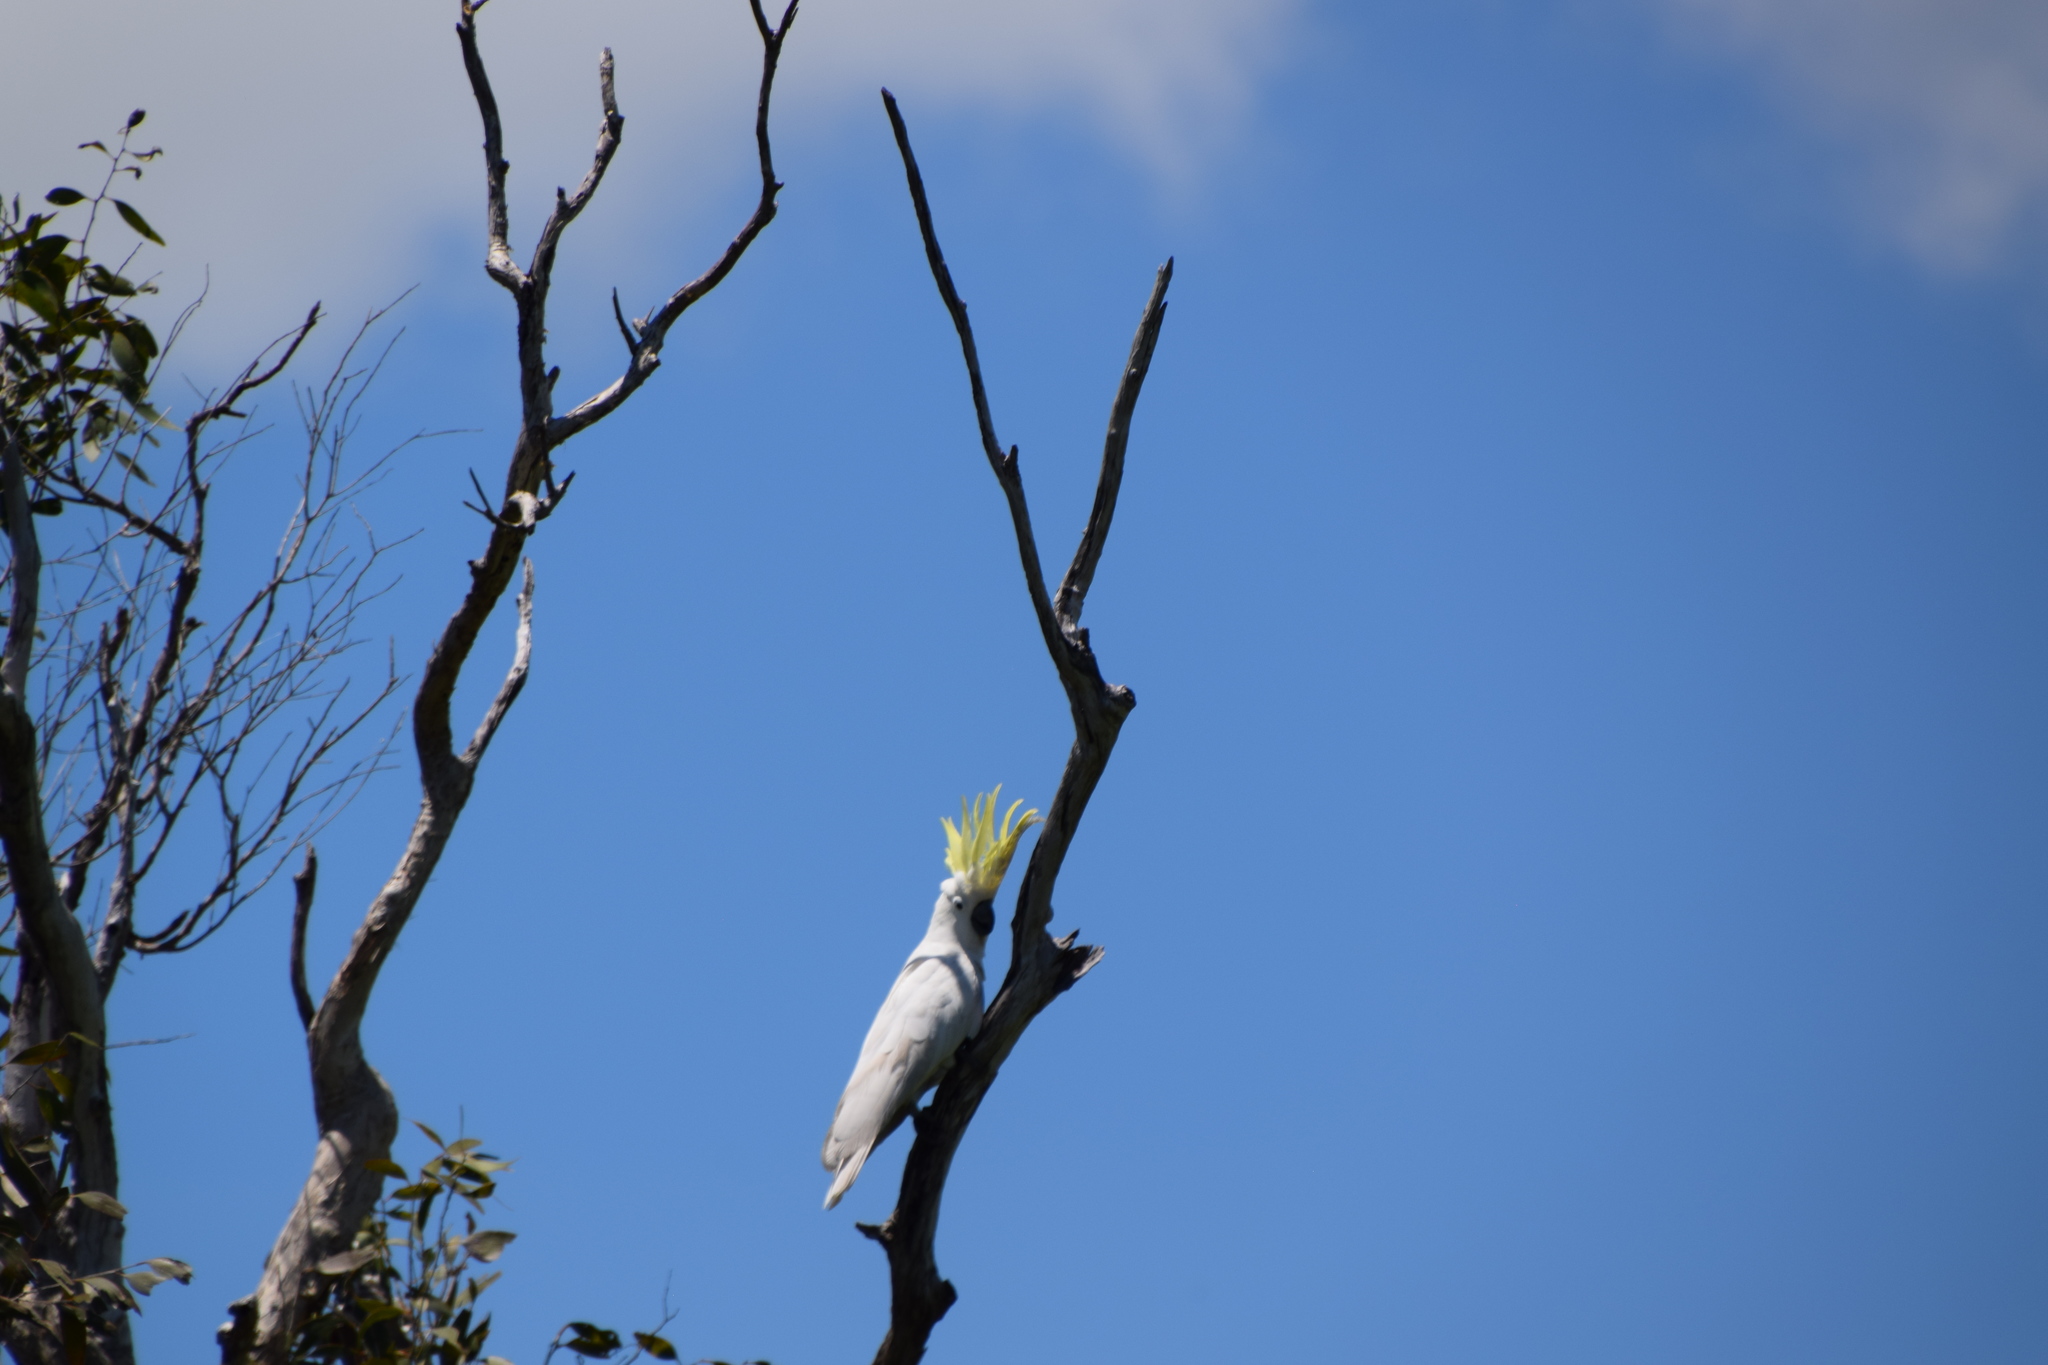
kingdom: Animalia
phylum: Chordata
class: Aves
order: Psittaciformes
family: Psittacidae
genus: Cacatua
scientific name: Cacatua galerita
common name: Sulphur-crested cockatoo
